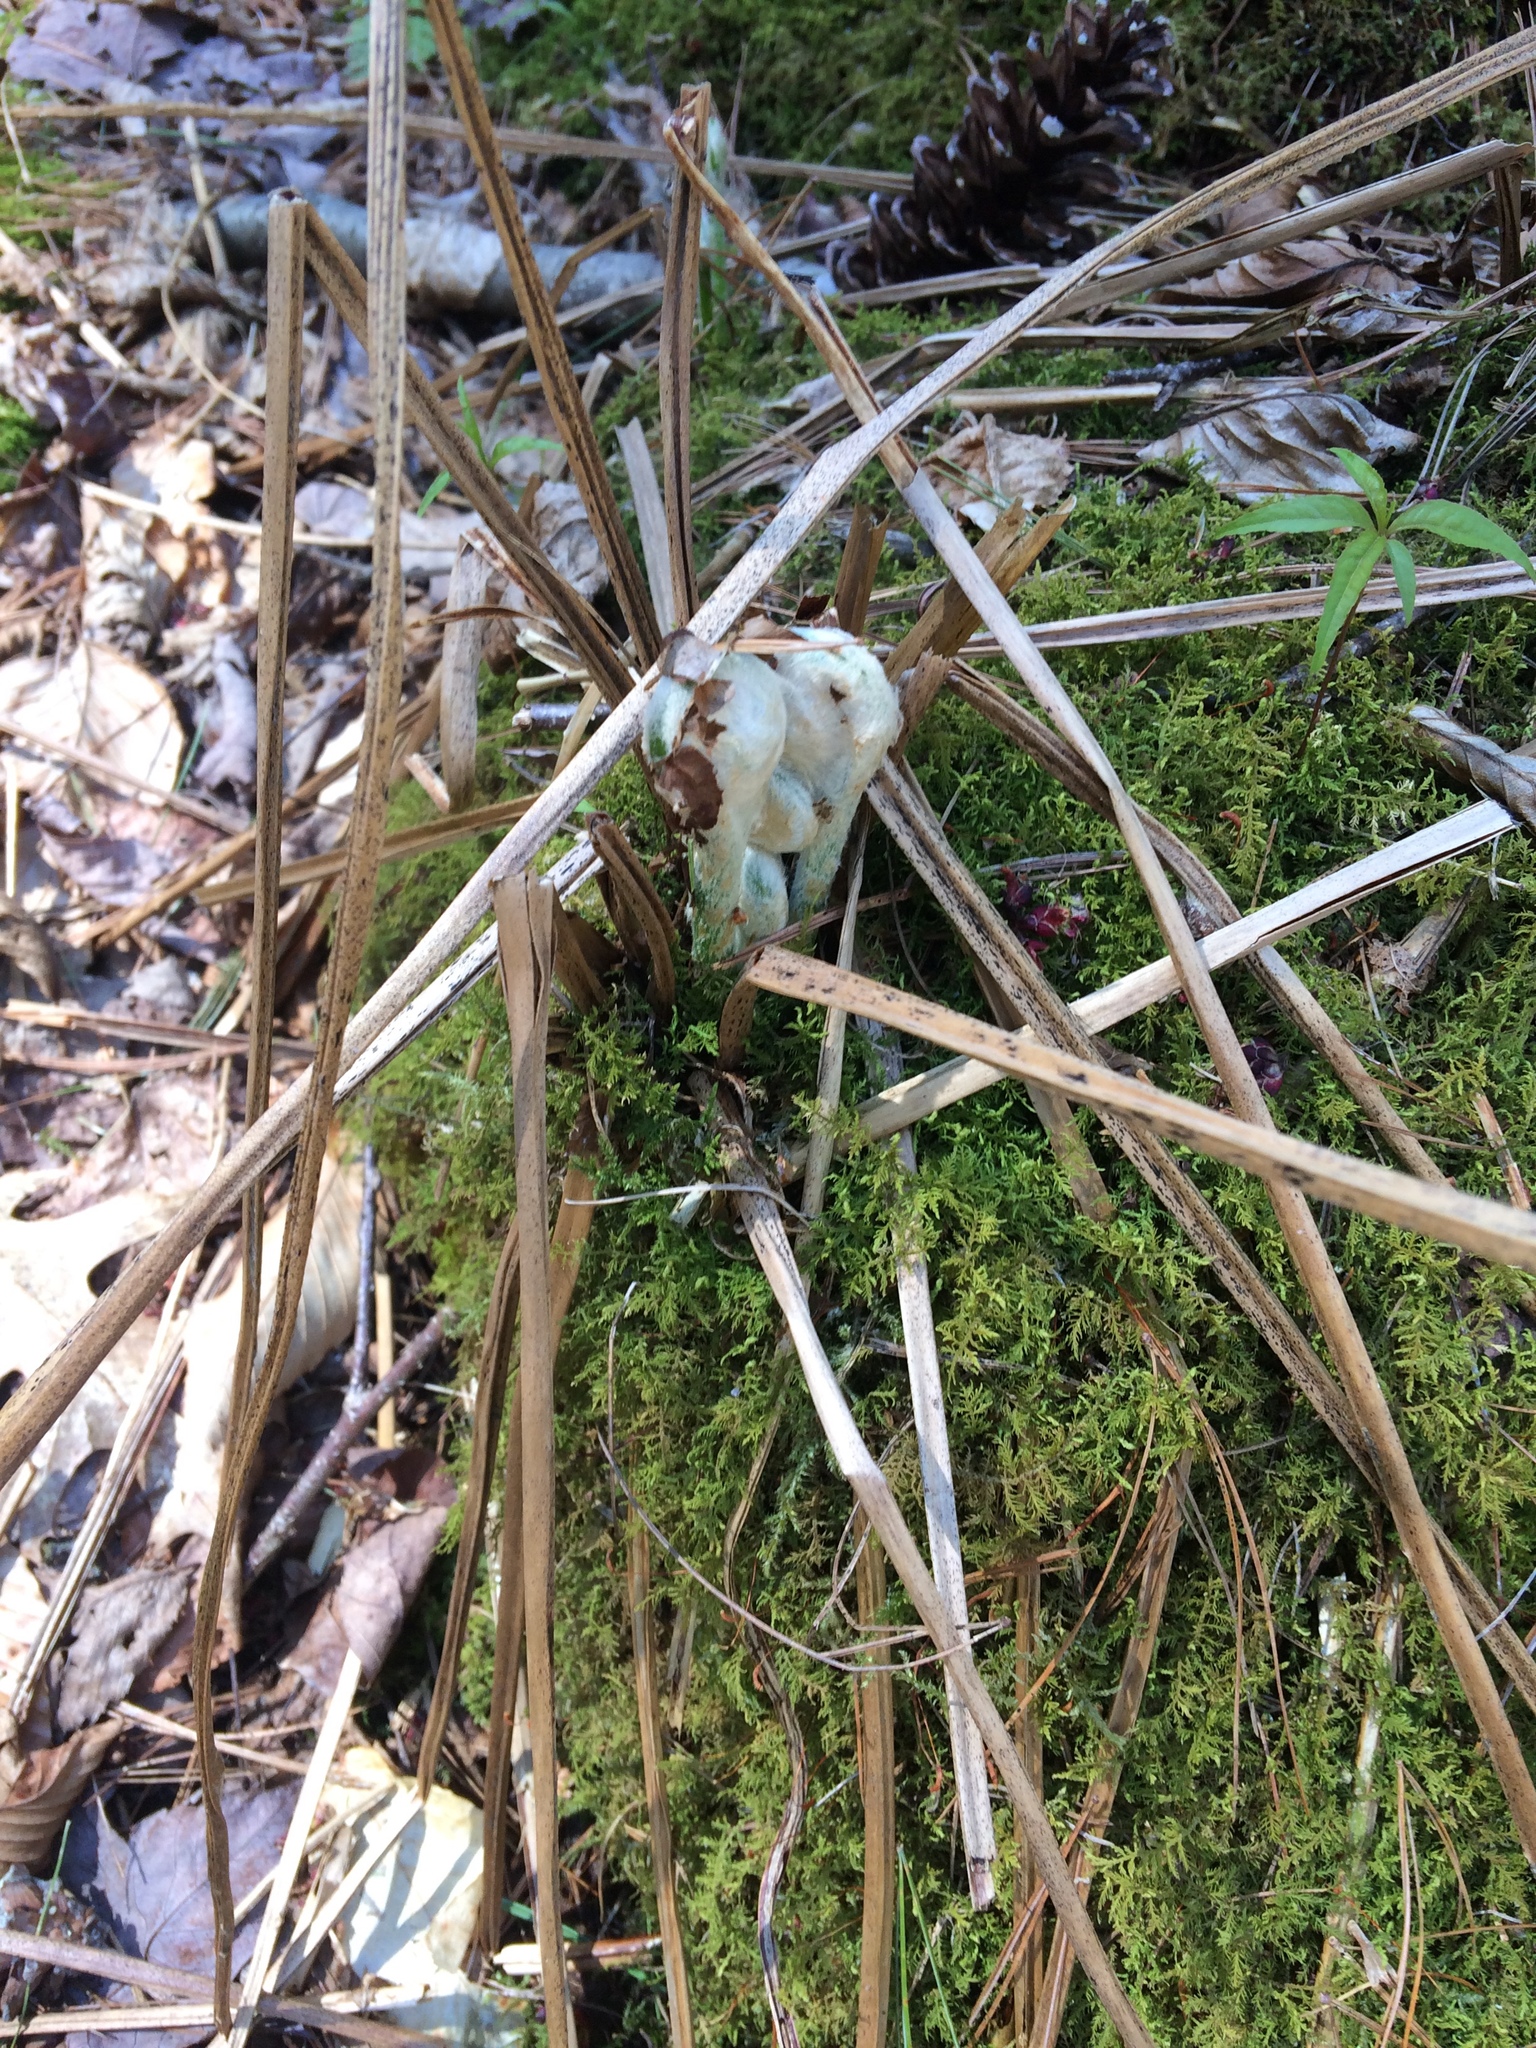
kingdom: Plantae
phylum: Tracheophyta
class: Polypodiopsida
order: Osmundales
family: Osmundaceae
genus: Osmundastrum
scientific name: Osmundastrum cinnamomeum
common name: Cinnamon fern
